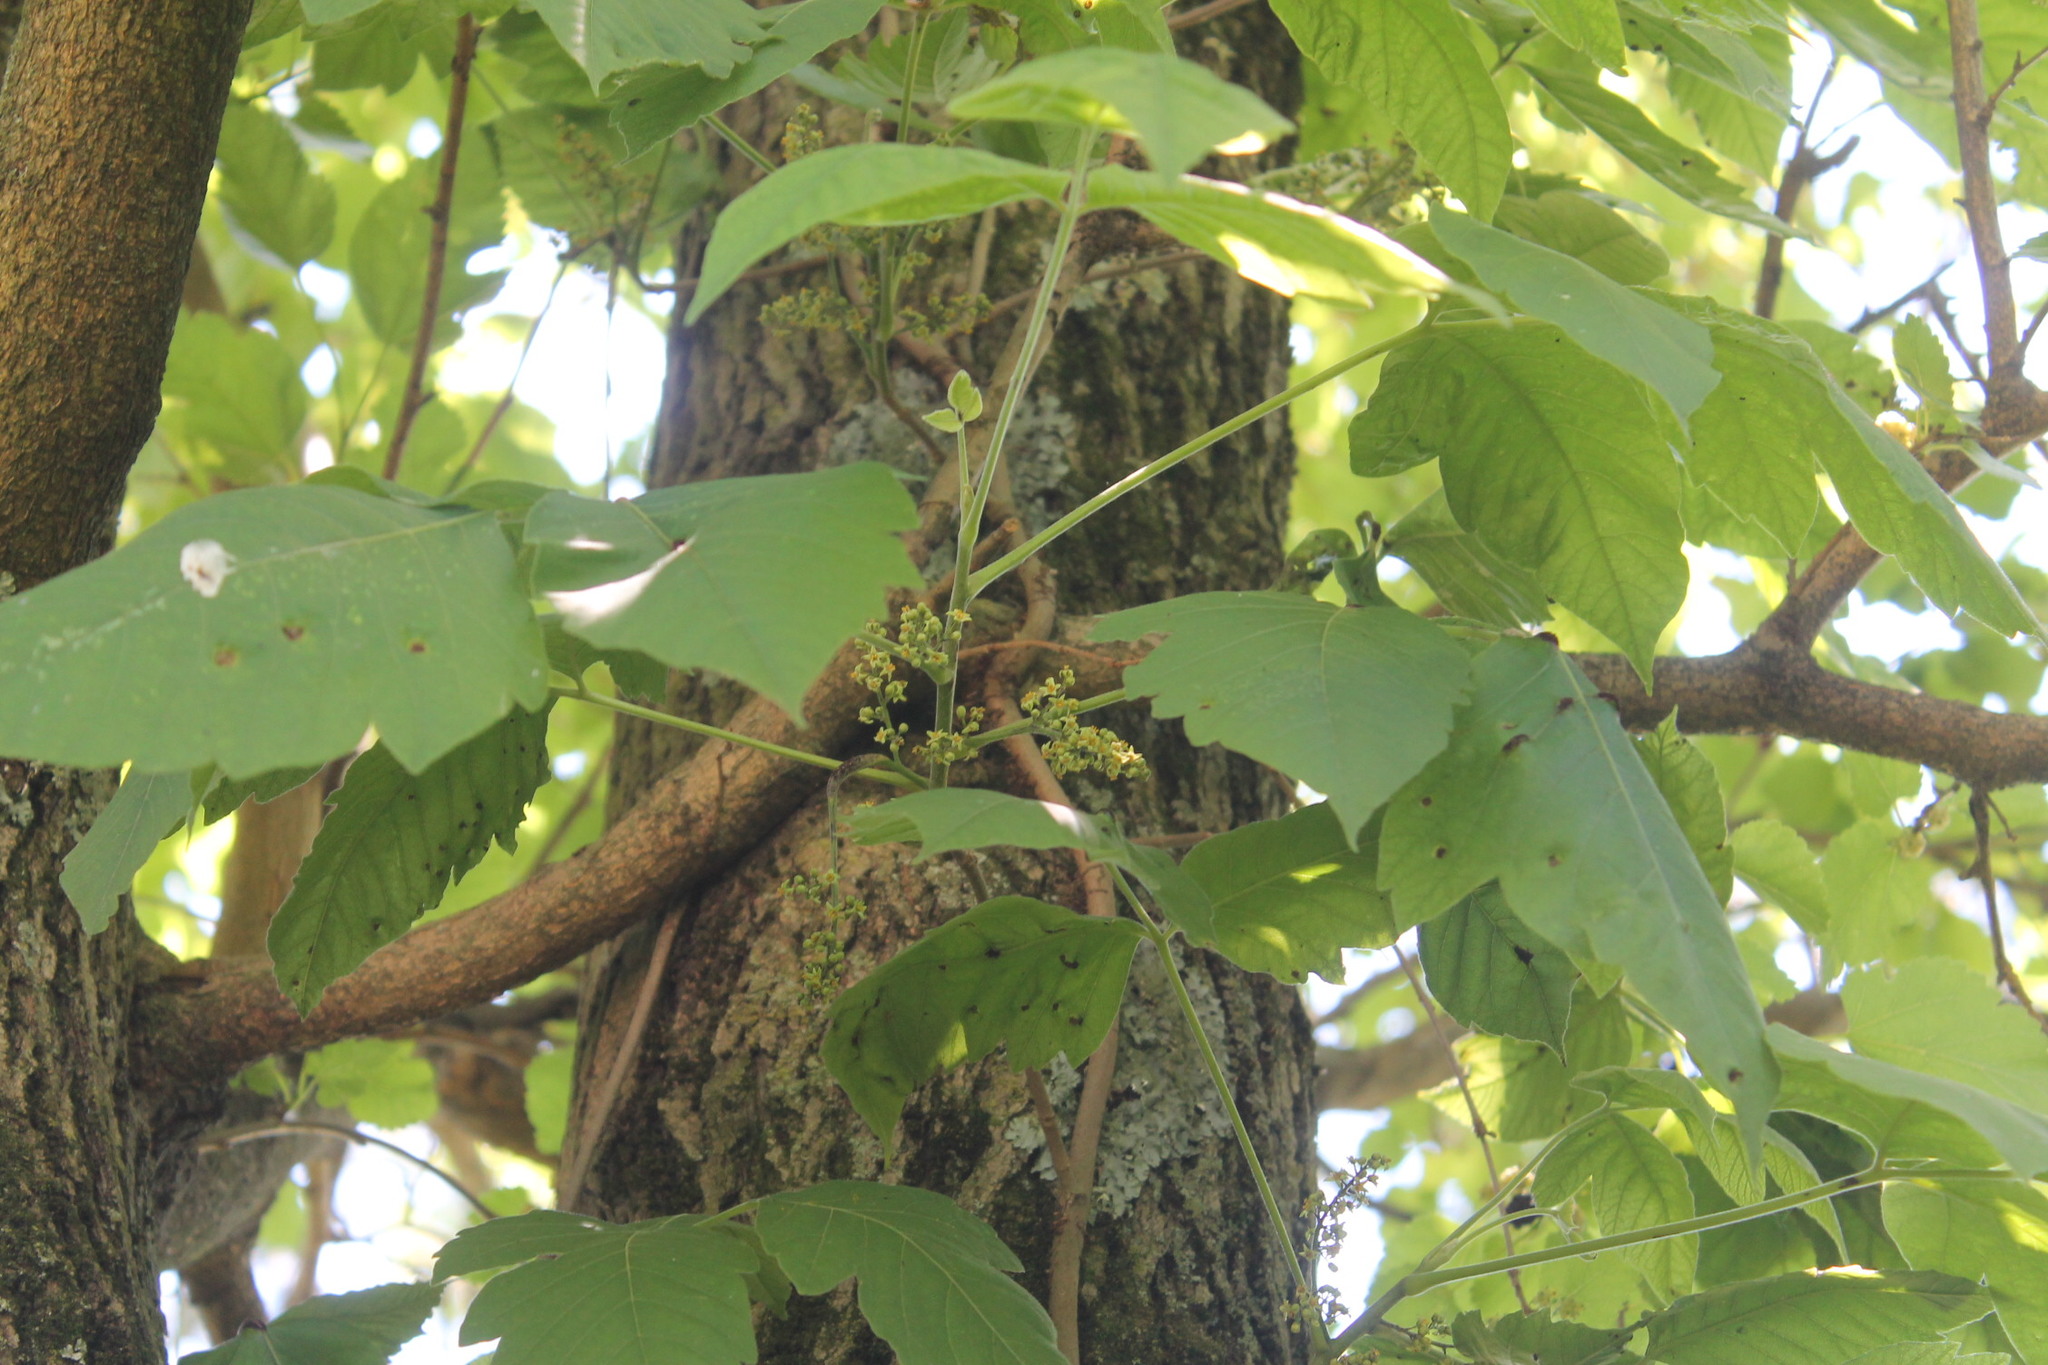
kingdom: Plantae
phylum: Tracheophyta
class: Magnoliopsida
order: Sapindales
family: Anacardiaceae
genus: Toxicodendron
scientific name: Toxicodendron radicans
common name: Poison ivy
